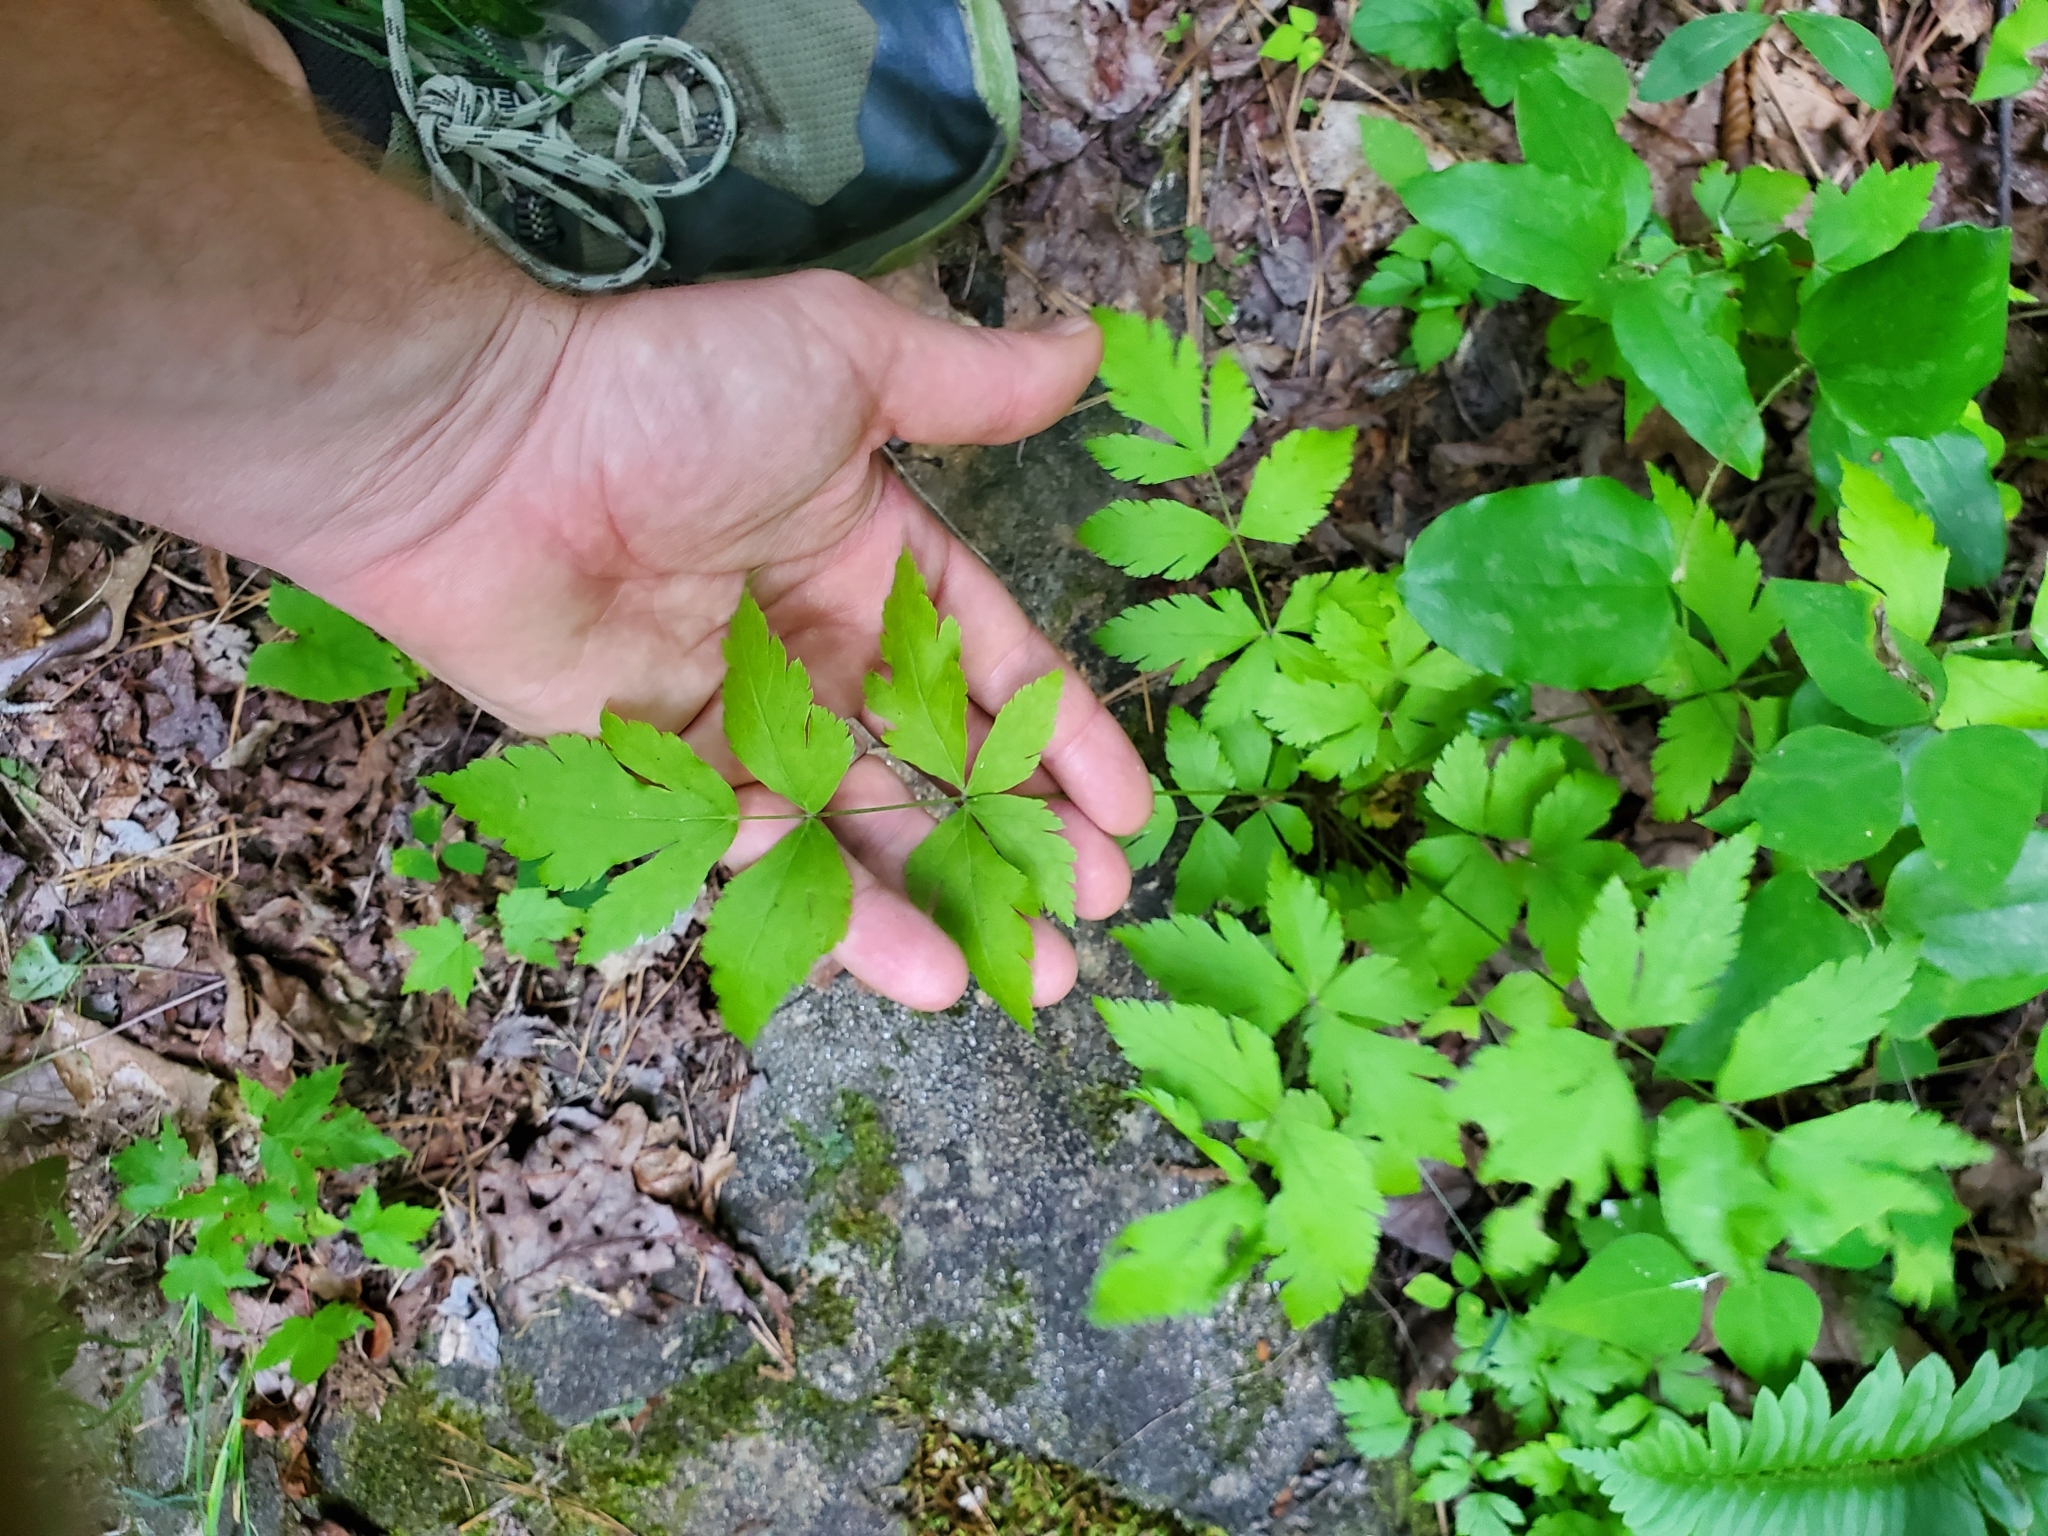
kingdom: Plantae
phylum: Tracheophyta
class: Magnoliopsida
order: Ranunculales
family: Ranunculaceae
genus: Xanthorhiza
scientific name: Xanthorhiza simplicissima
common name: Yellowroot
